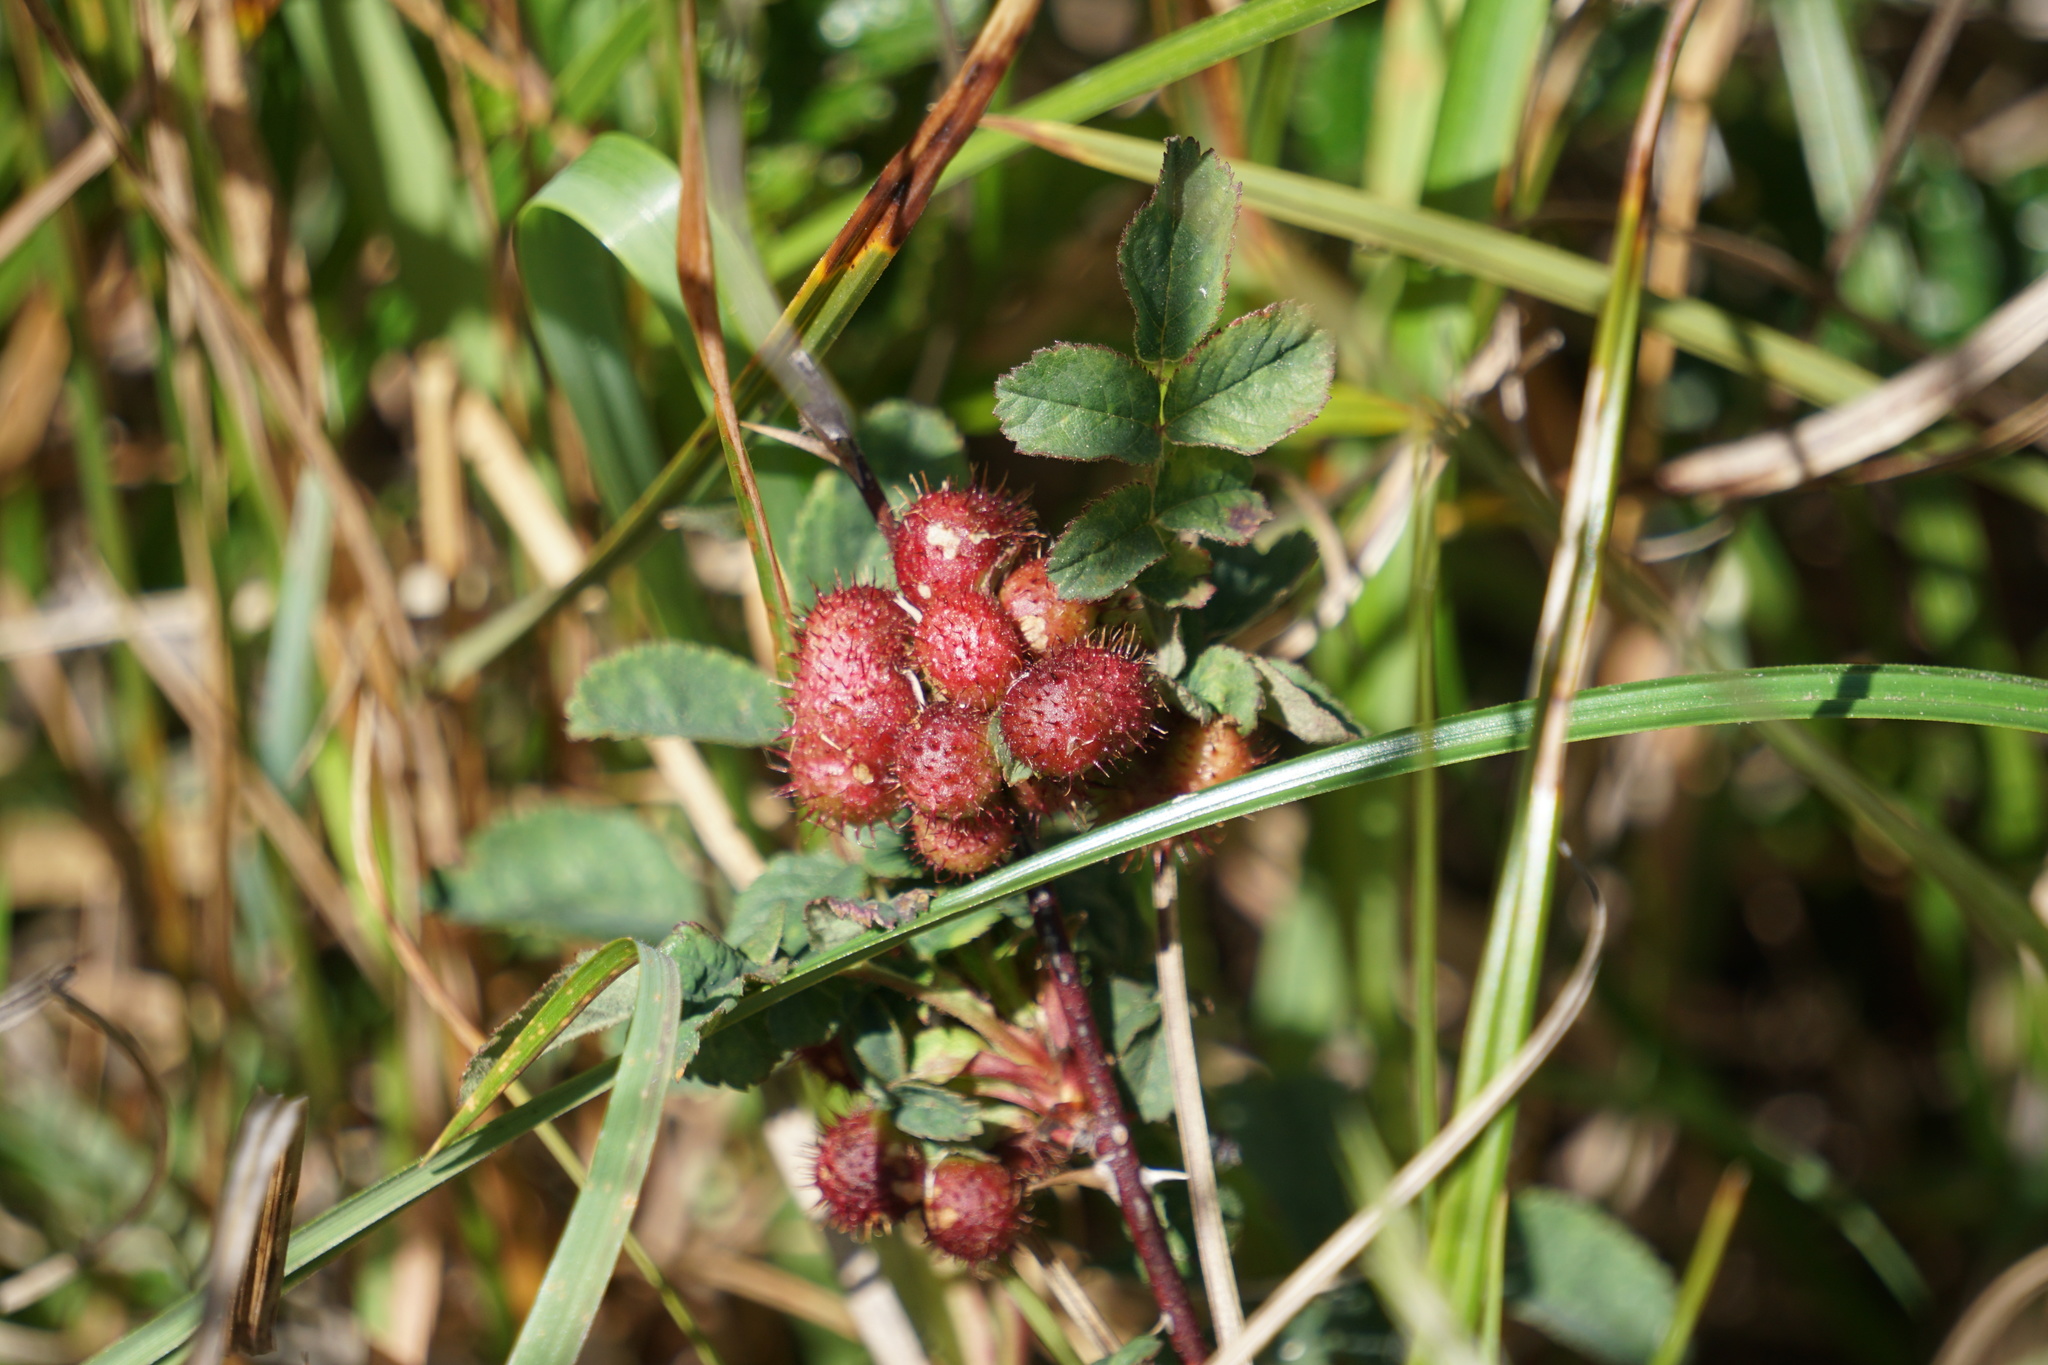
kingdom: Animalia
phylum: Arthropoda
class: Insecta
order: Hymenoptera
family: Cynipidae
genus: Diplolepis
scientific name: Diplolepis polita
